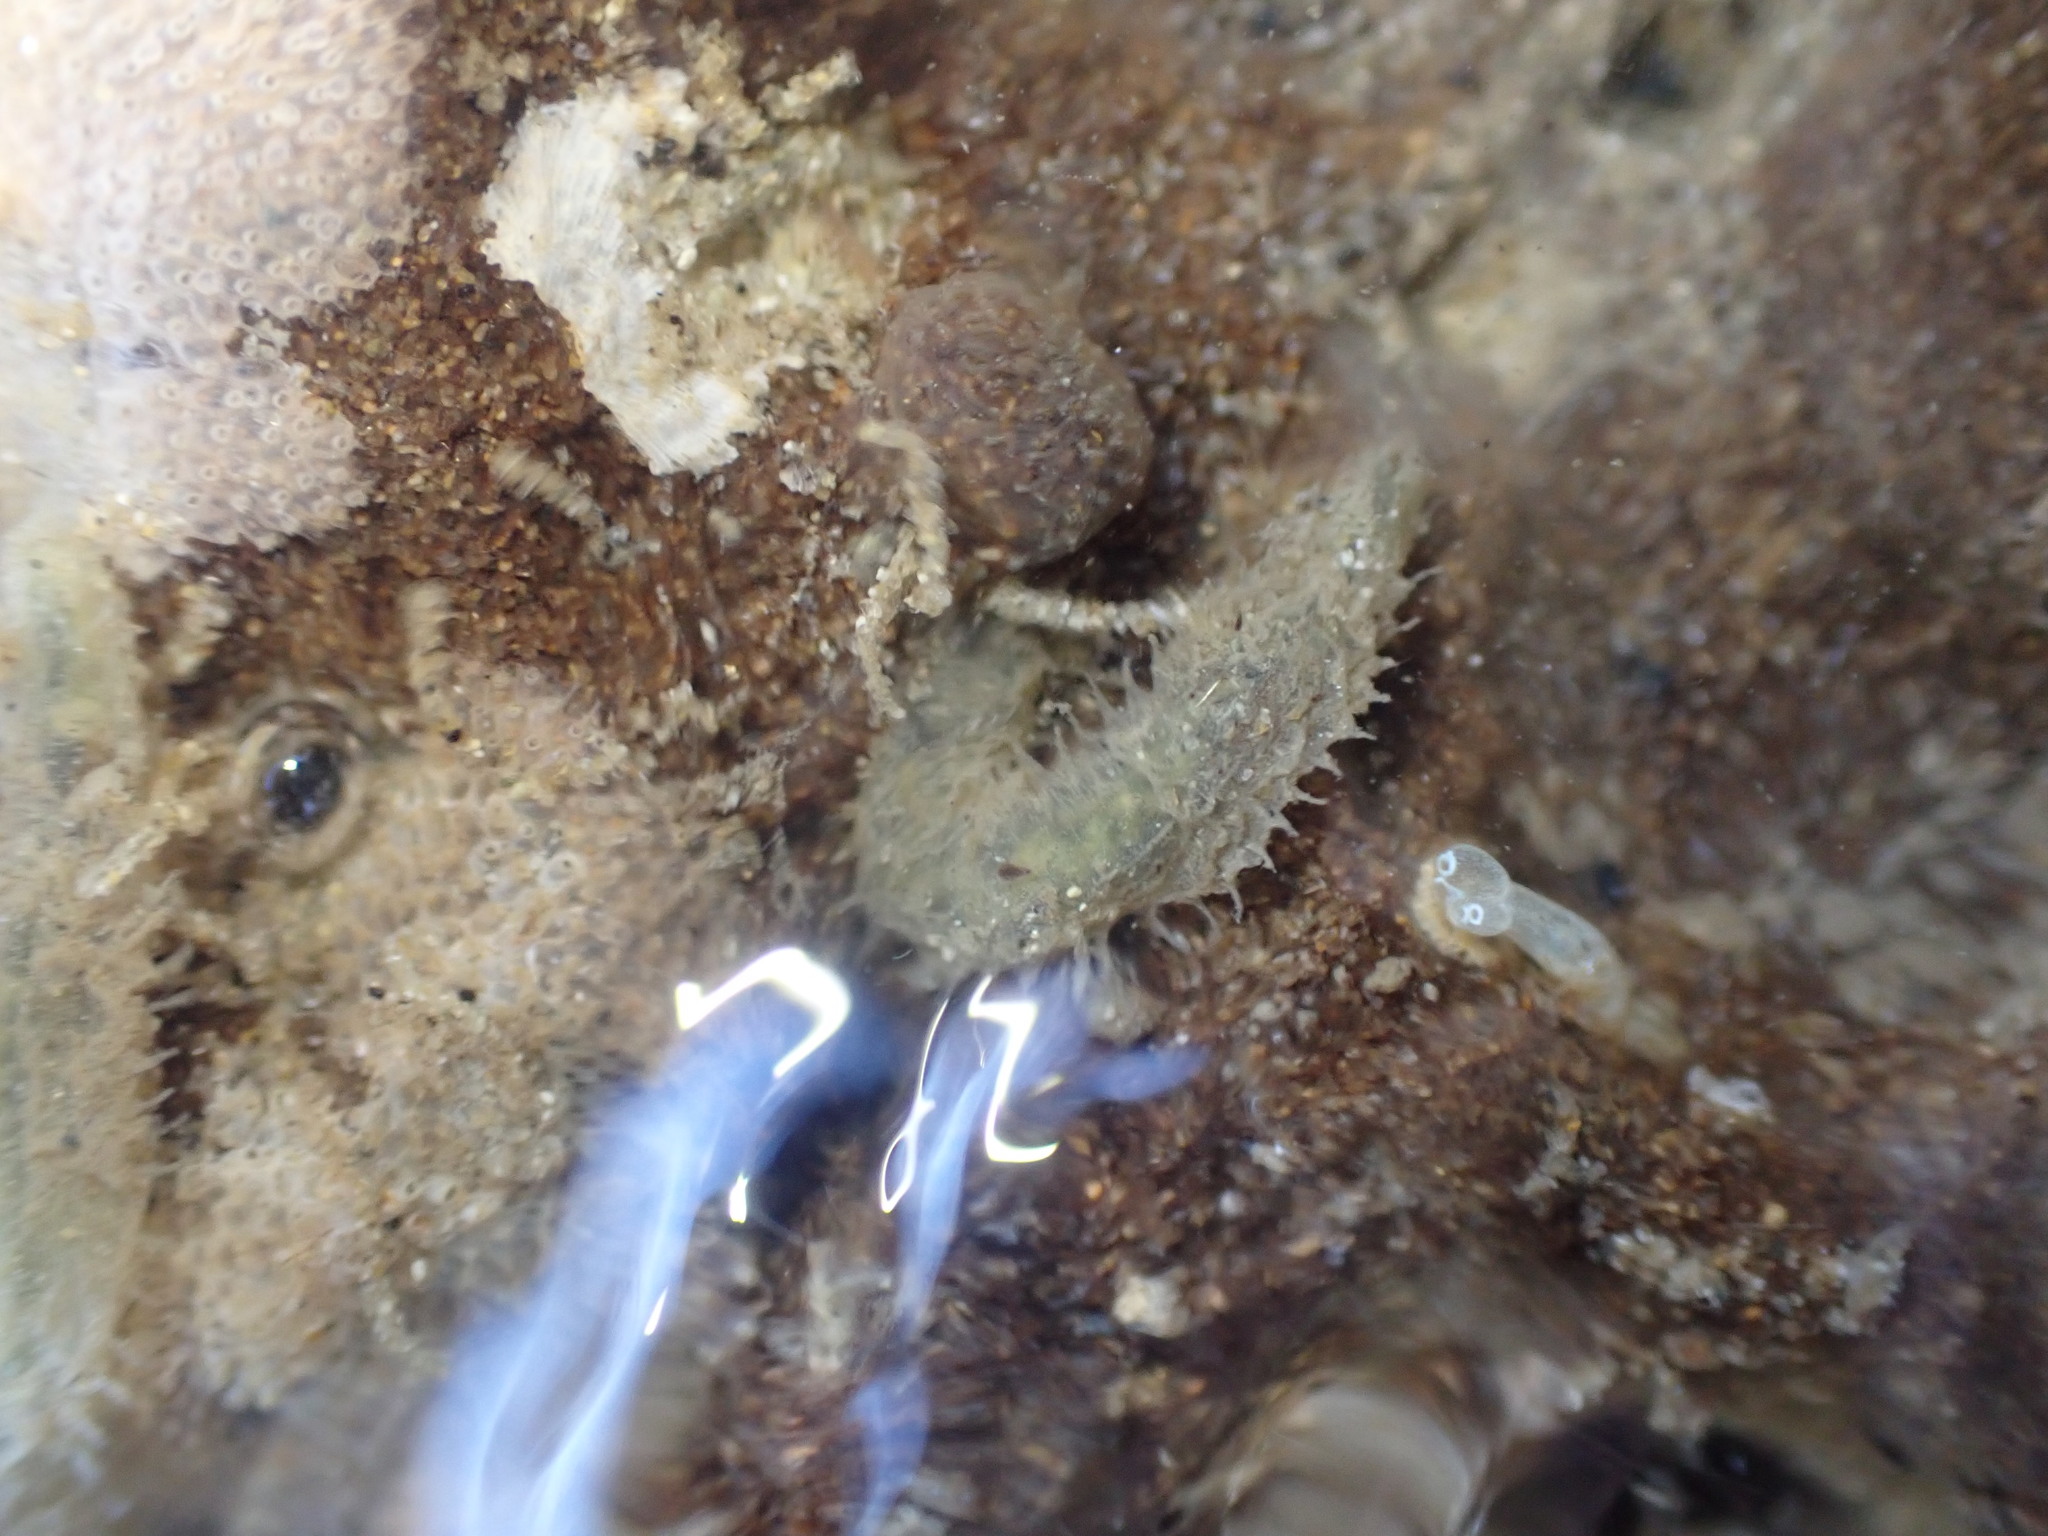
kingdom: Animalia
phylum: Annelida
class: Polychaeta
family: Flabelligeridae
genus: Flabelligera
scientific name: Flabelligera bicolor
